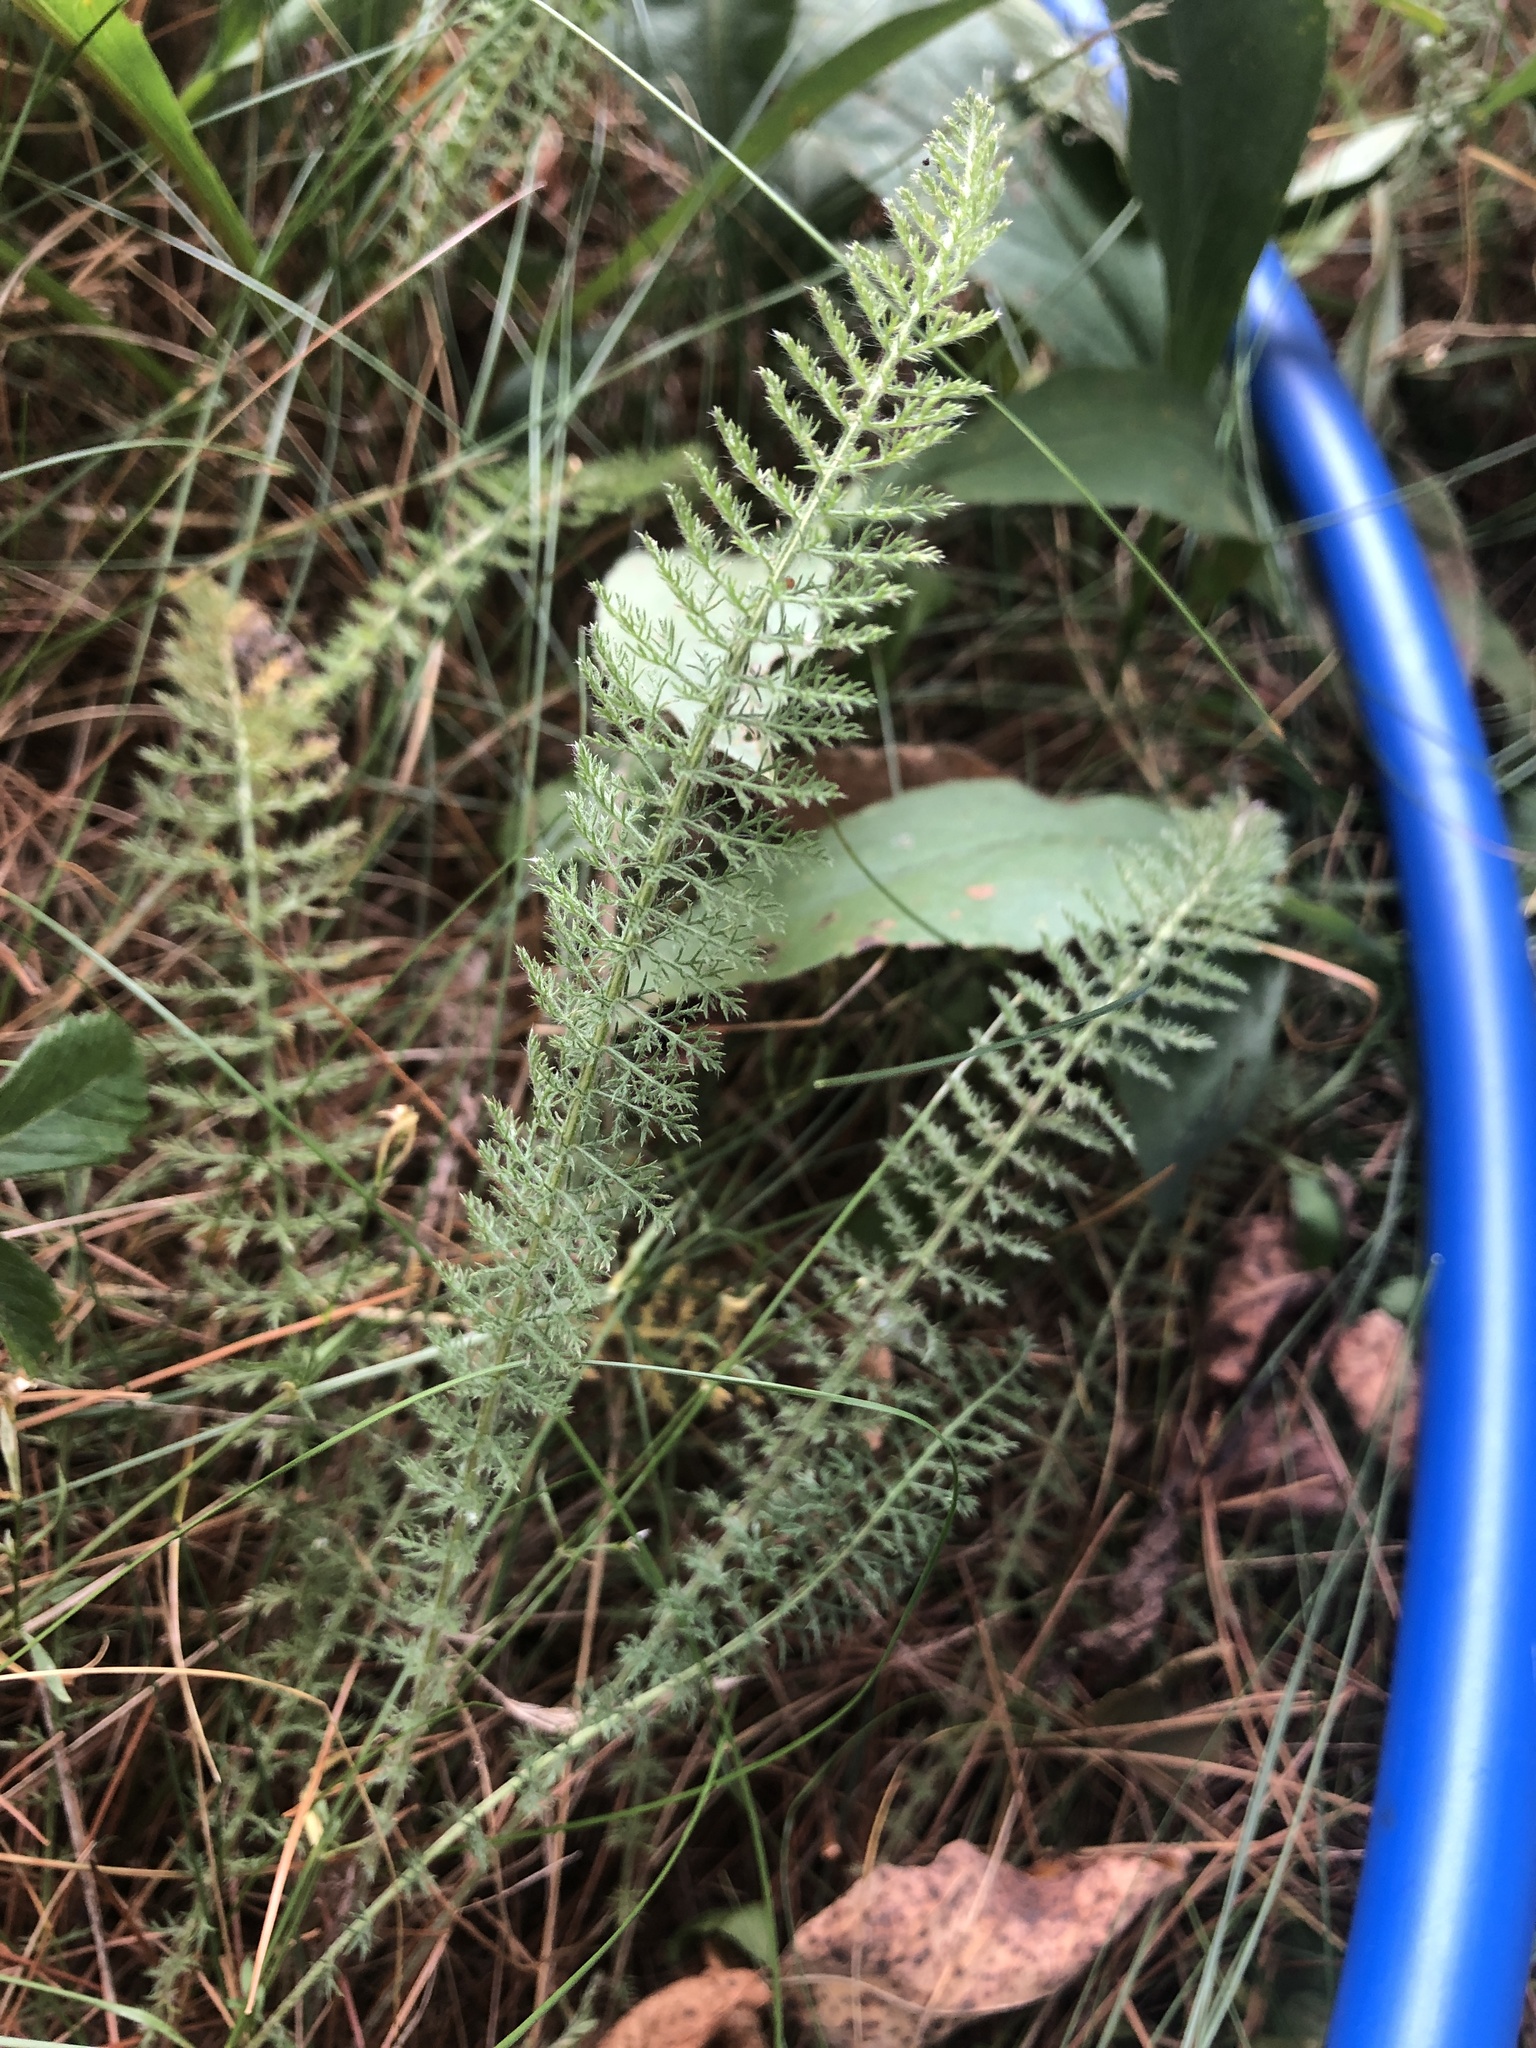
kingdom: Plantae
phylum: Tracheophyta
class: Magnoliopsida
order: Asterales
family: Asteraceae
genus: Achillea
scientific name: Achillea millefolium
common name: Yarrow
